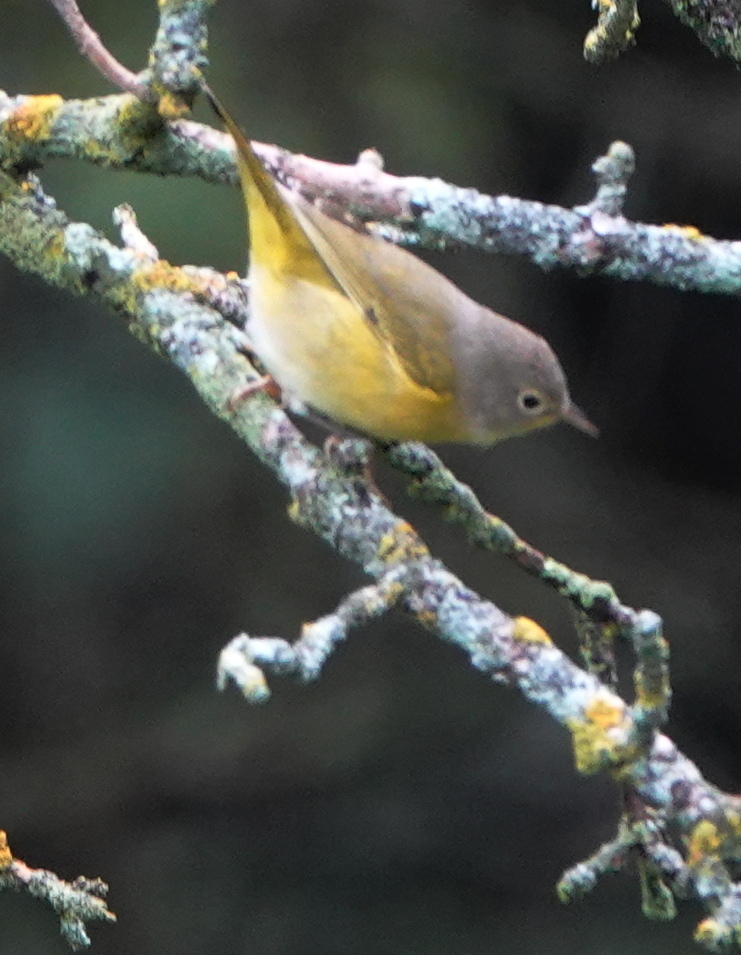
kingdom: Animalia
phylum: Chordata
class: Aves
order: Passeriformes
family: Parulidae
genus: Leiothlypis
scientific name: Leiothlypis ruficapilla
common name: Nashville warbler
